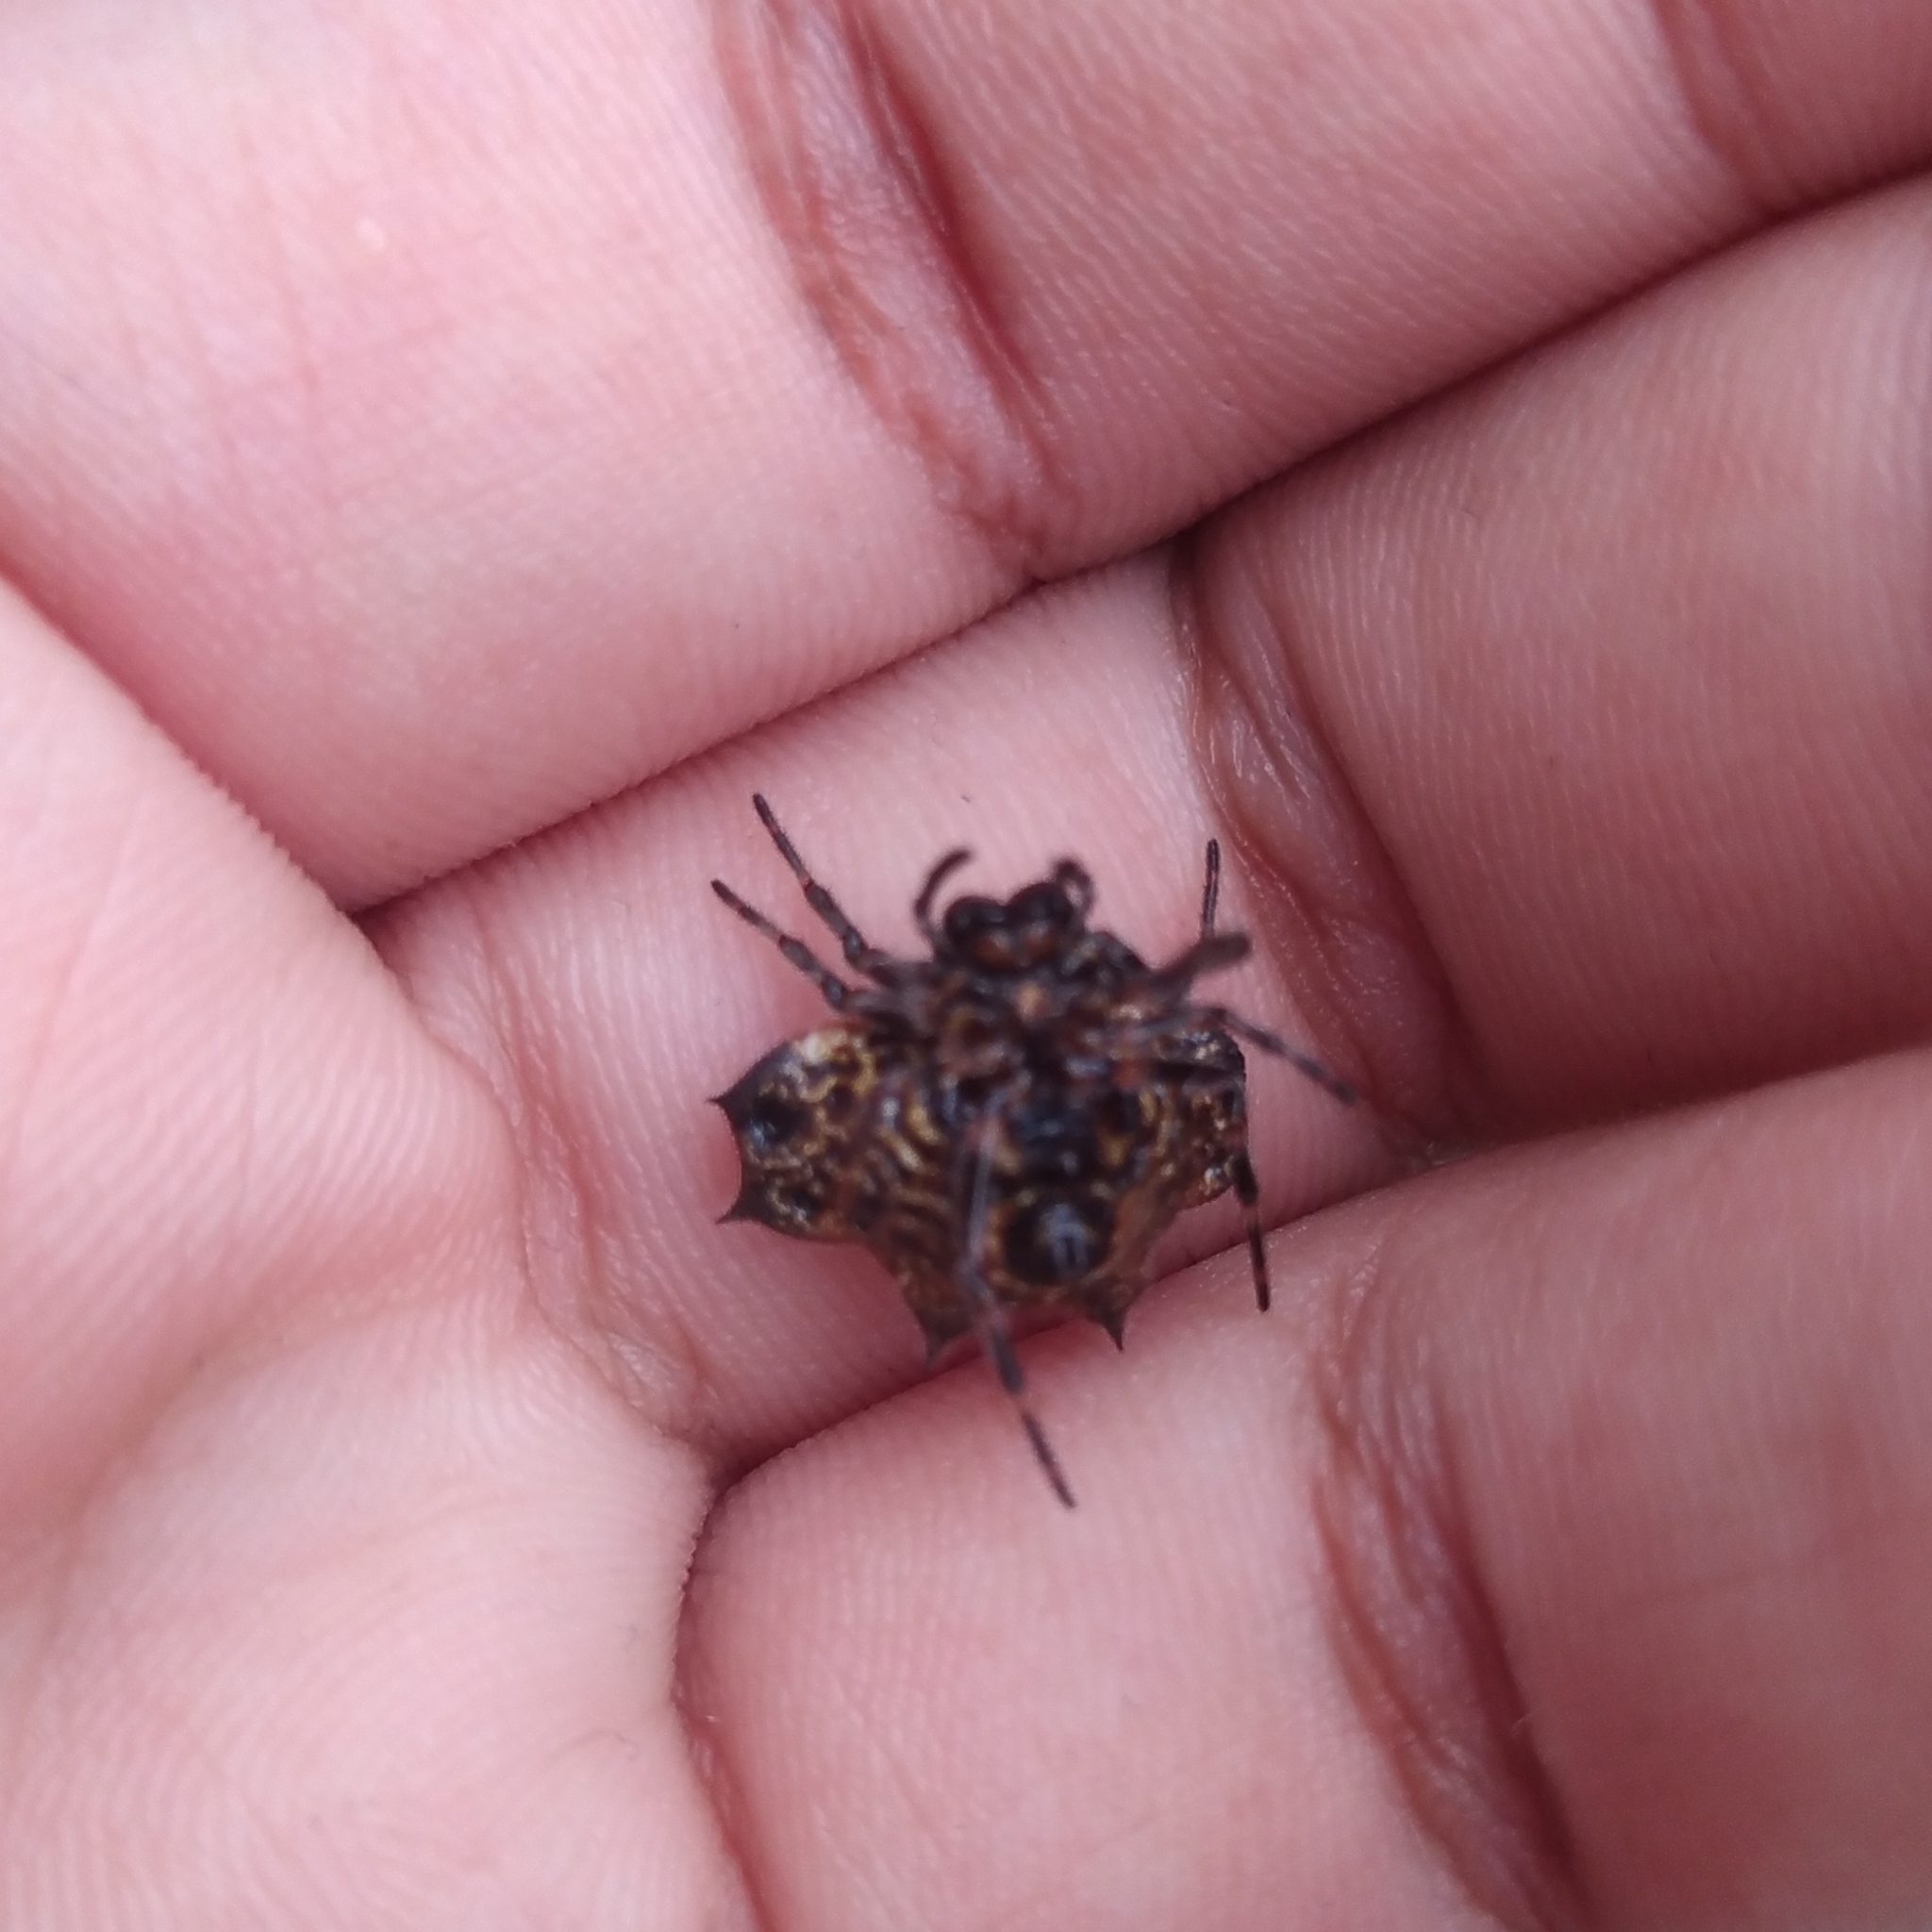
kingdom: Animalia
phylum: Arthropoda
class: Arachnida
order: Araneae
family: Araneidae
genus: Gasteracantha
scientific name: Gasteracantha cancriformis
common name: Orb weavers
